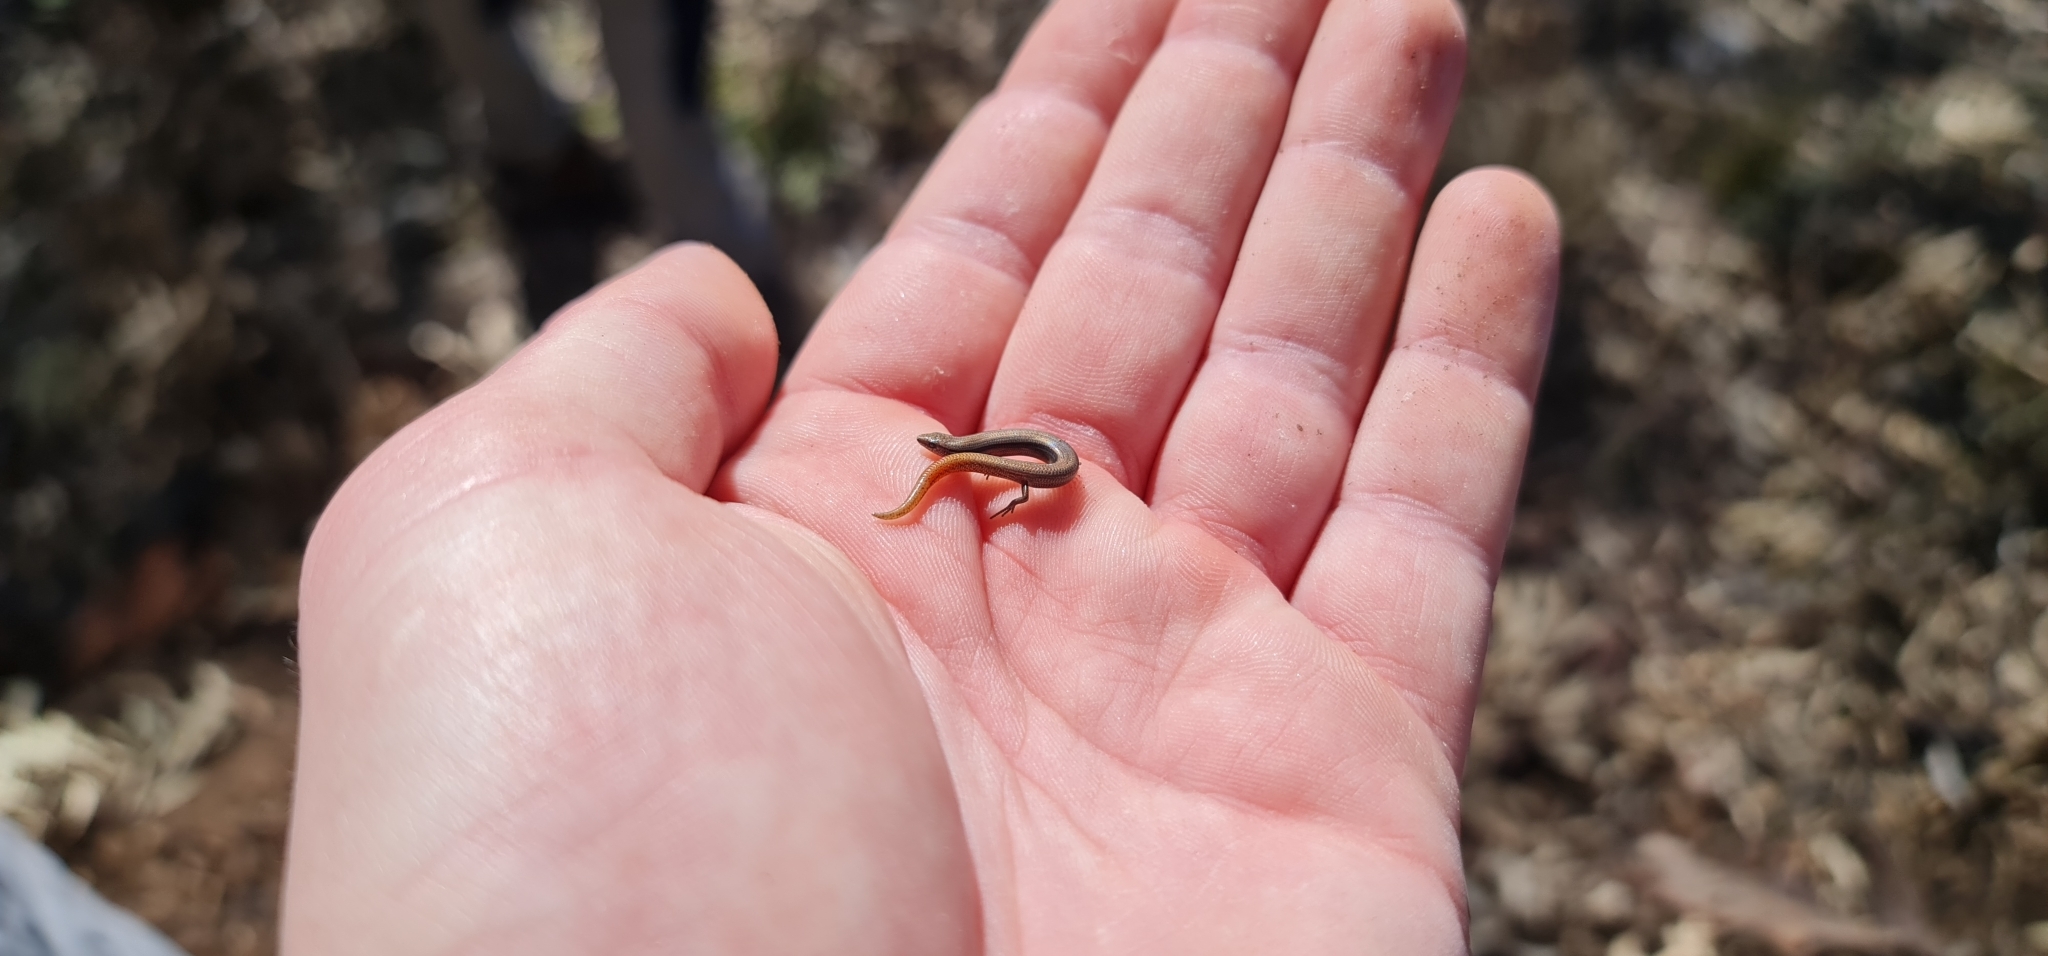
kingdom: Animalia
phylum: Chordata
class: Squamata
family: Scincidae
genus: Lerista
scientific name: Lerista timida
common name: Dwarf three-toed slider
